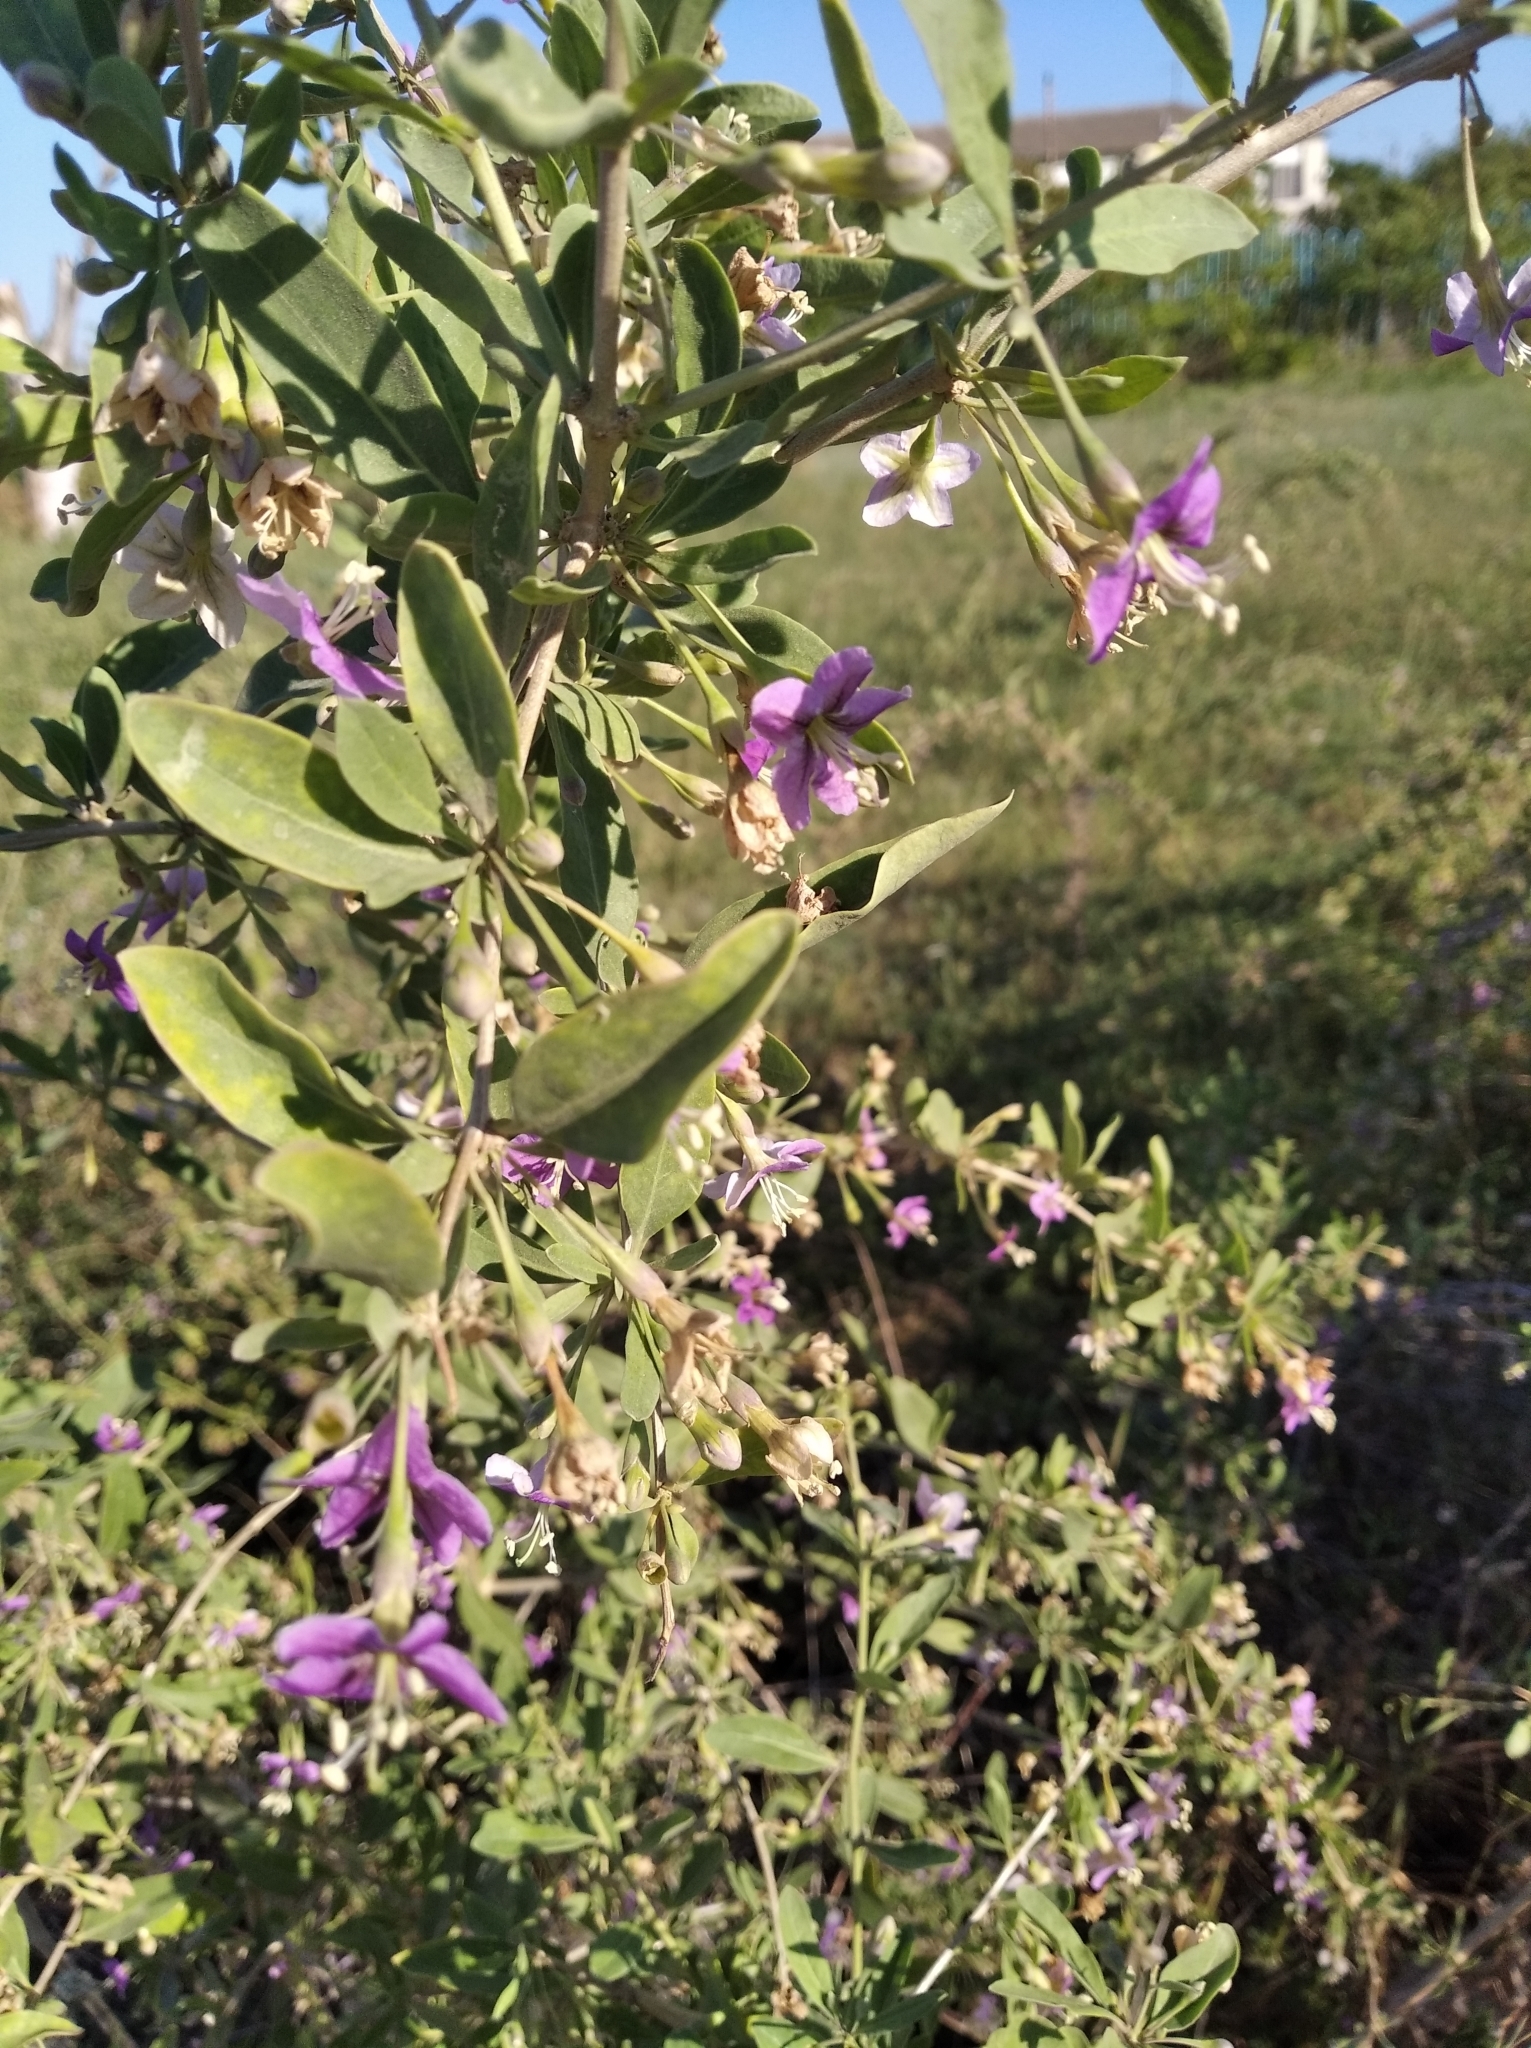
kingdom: Plantae
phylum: Tracheophyta
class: Magnoliopsida
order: Solanales
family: Solanaceae
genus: Lycium
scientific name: Lycium barbarum
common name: Duke of argyll's teaplant
